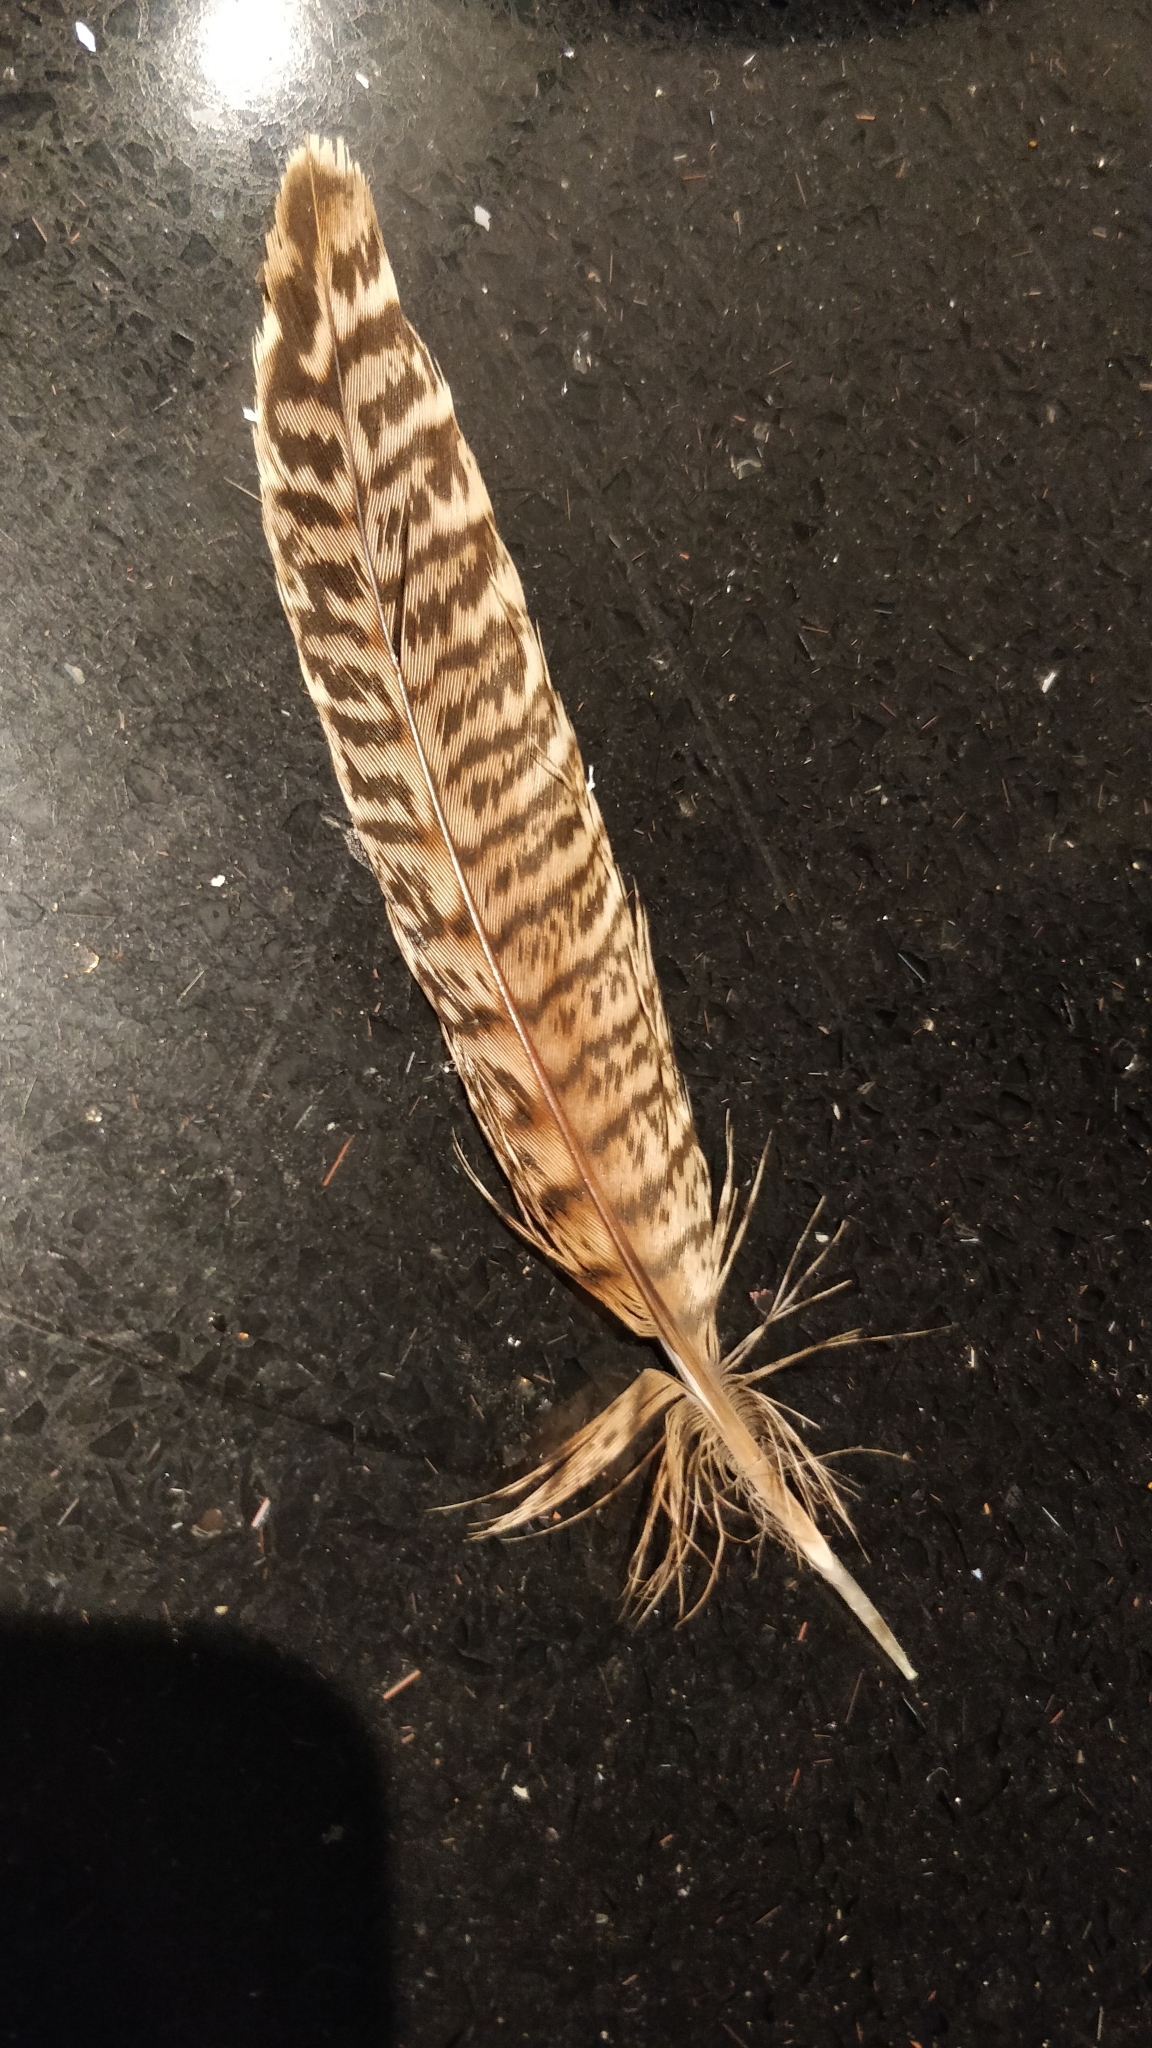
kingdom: Animalia
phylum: Chordata
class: Aves
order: Galliformes
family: Phasianidae
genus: Phasianus
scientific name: Phasianus colchicus
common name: Common pheasant
